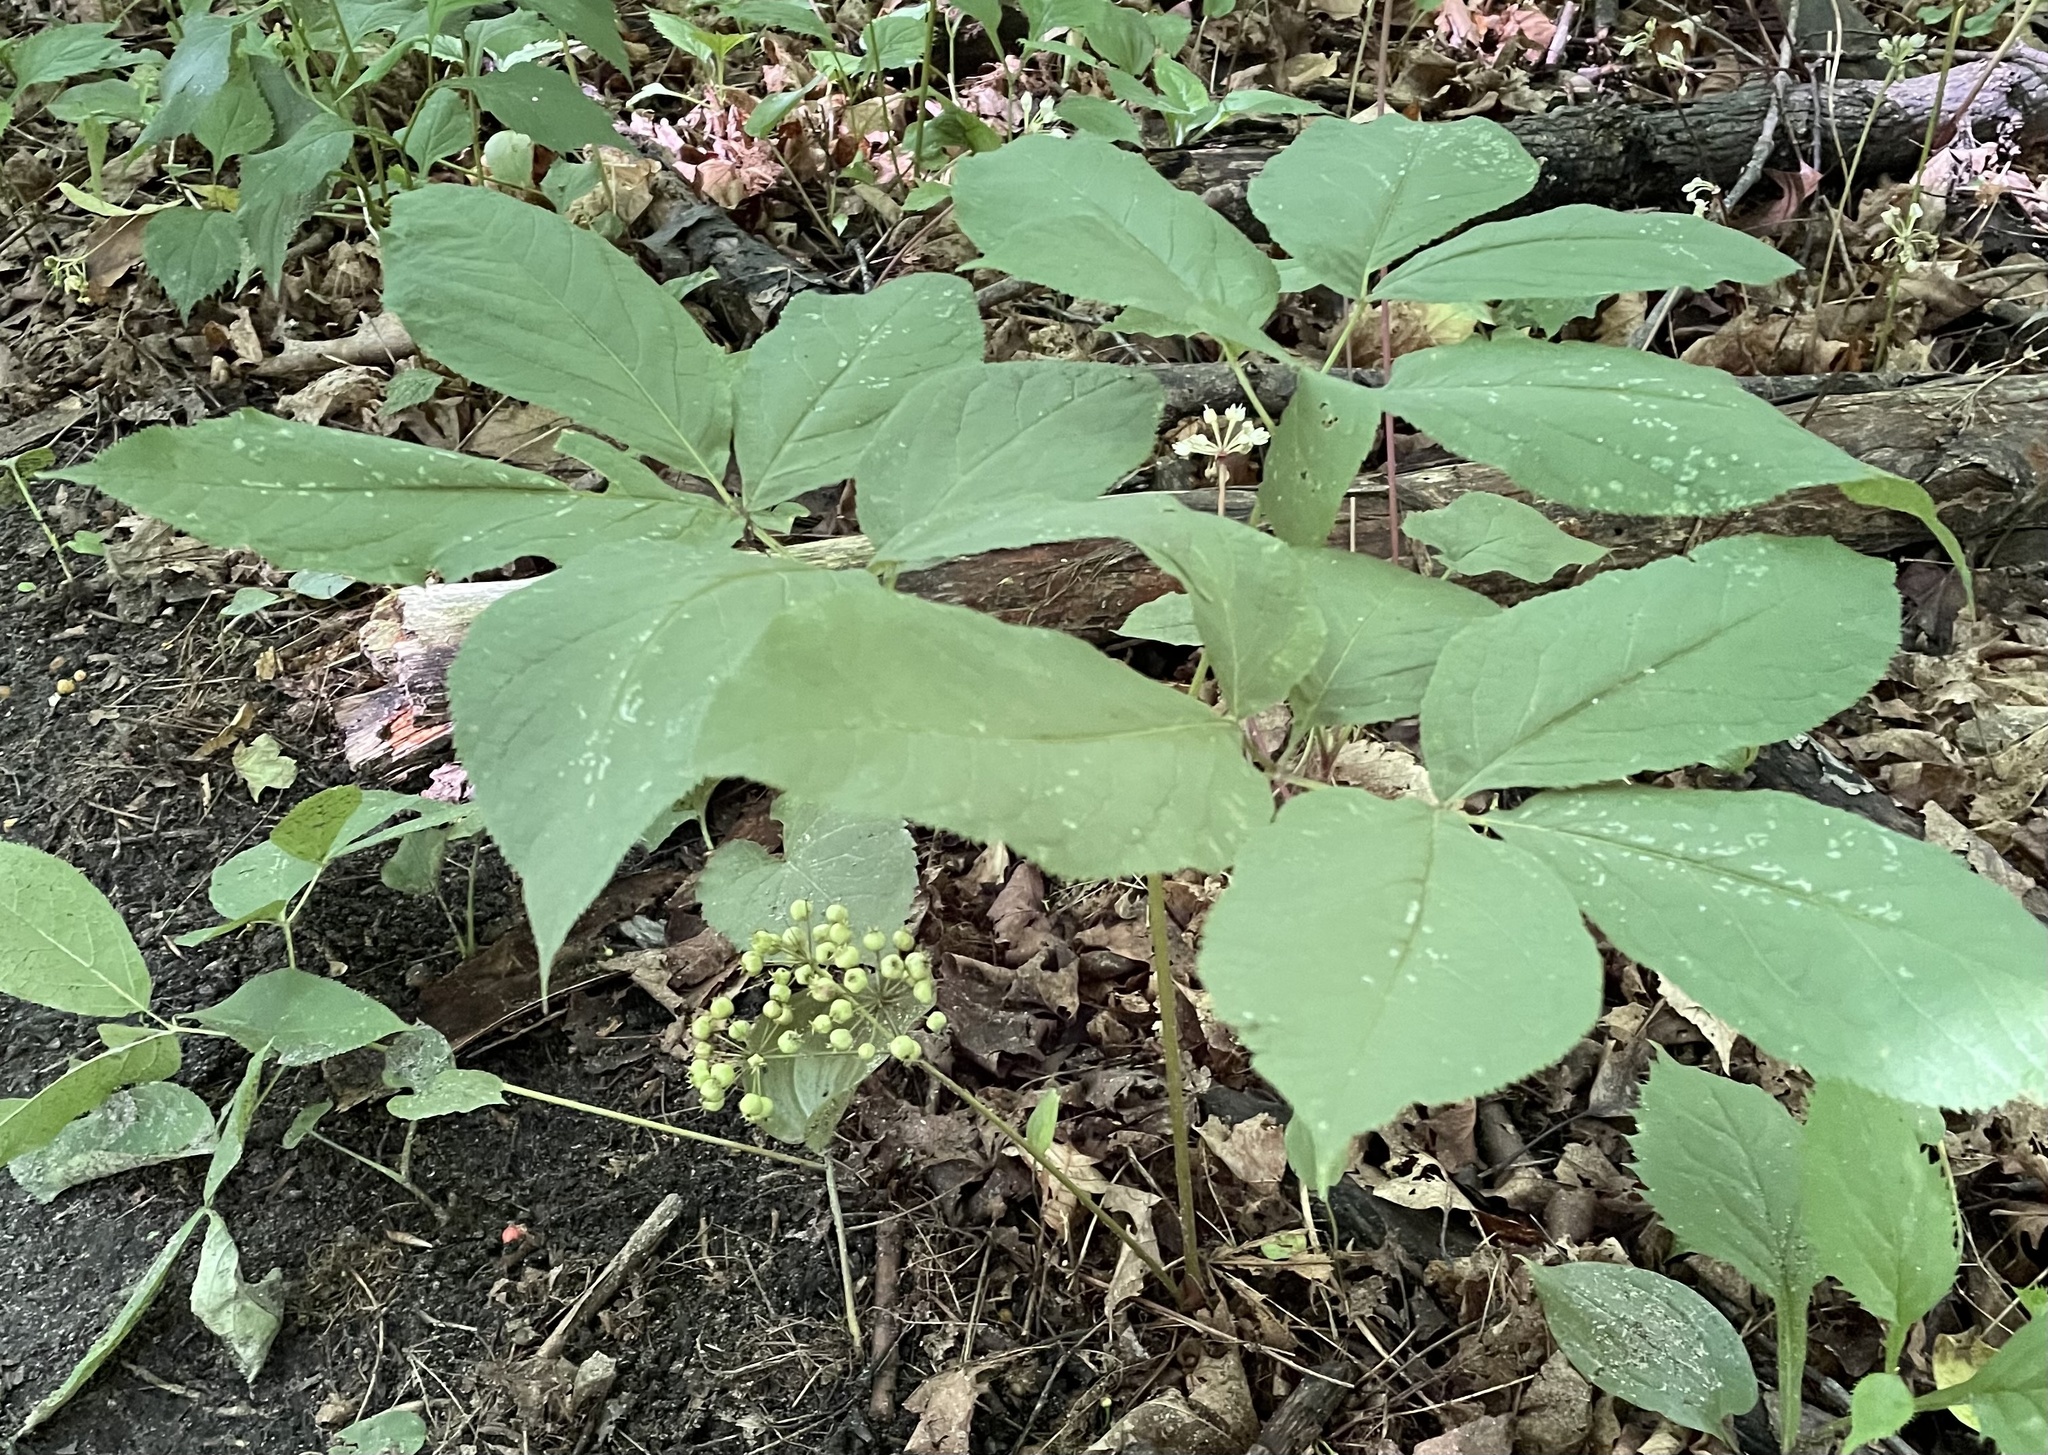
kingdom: Plantae
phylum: Tracheophyta
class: Magnoliopsida
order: Apiales
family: Araliaceae
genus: Aralia
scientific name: Aralia nudicaulis
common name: Wild sarsaparilla
